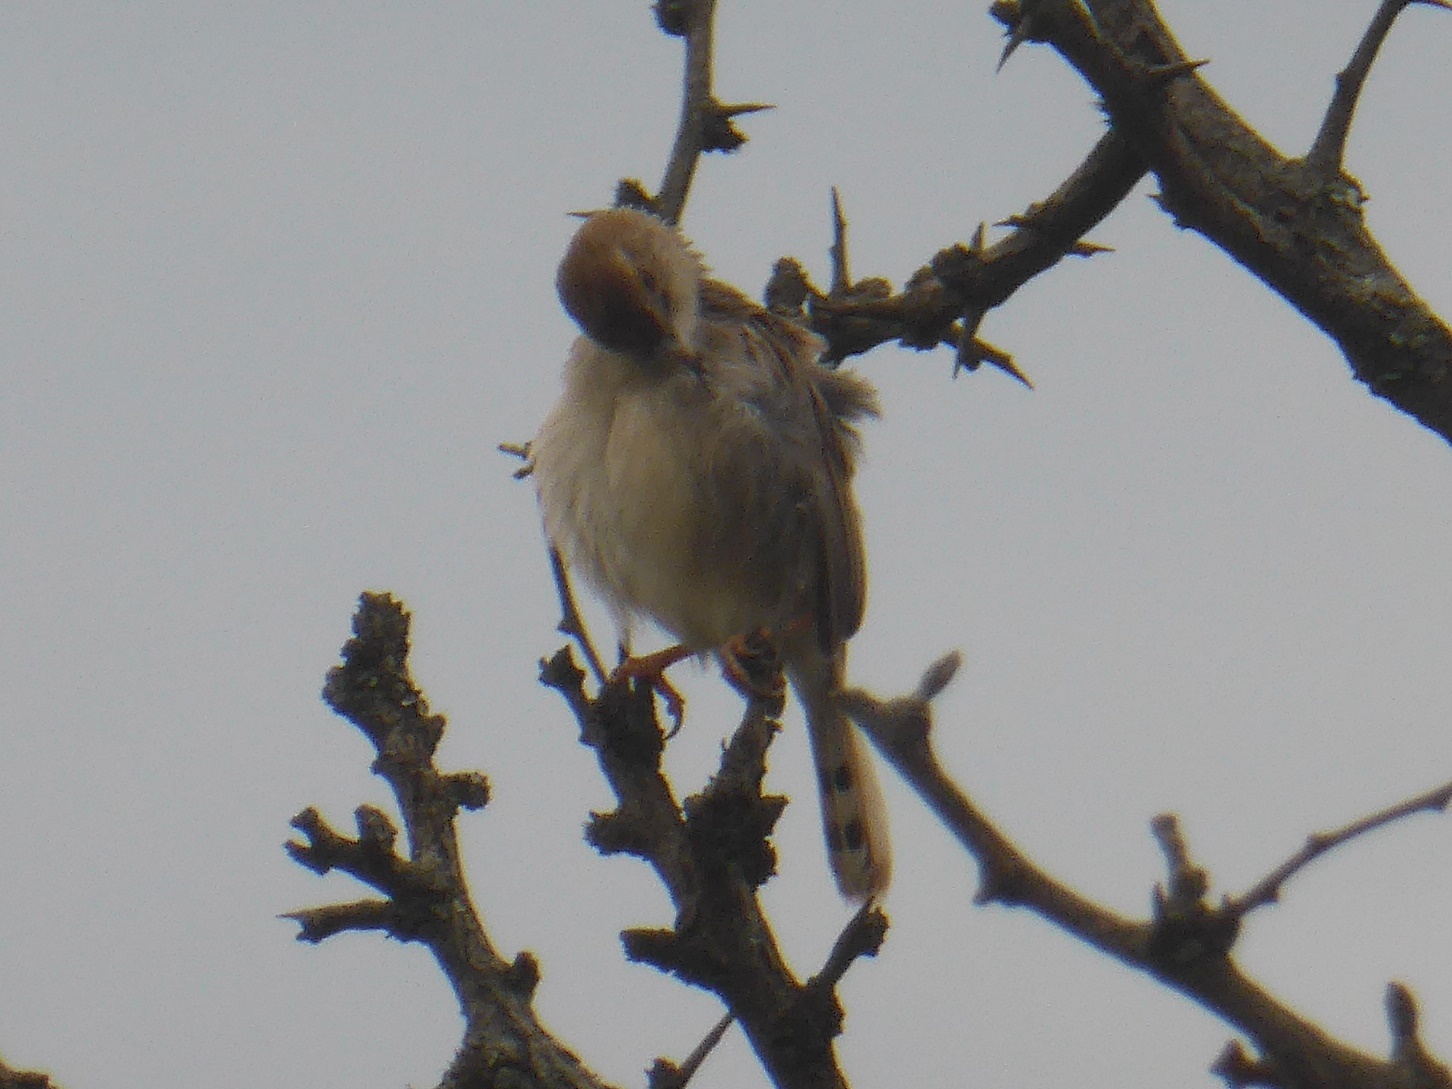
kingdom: Animalia
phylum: Chordata
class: Aves
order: Passeriformes
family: Cisticolidae
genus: Cisticola
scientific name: Cisticola chiniana
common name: Rattling cisticola
